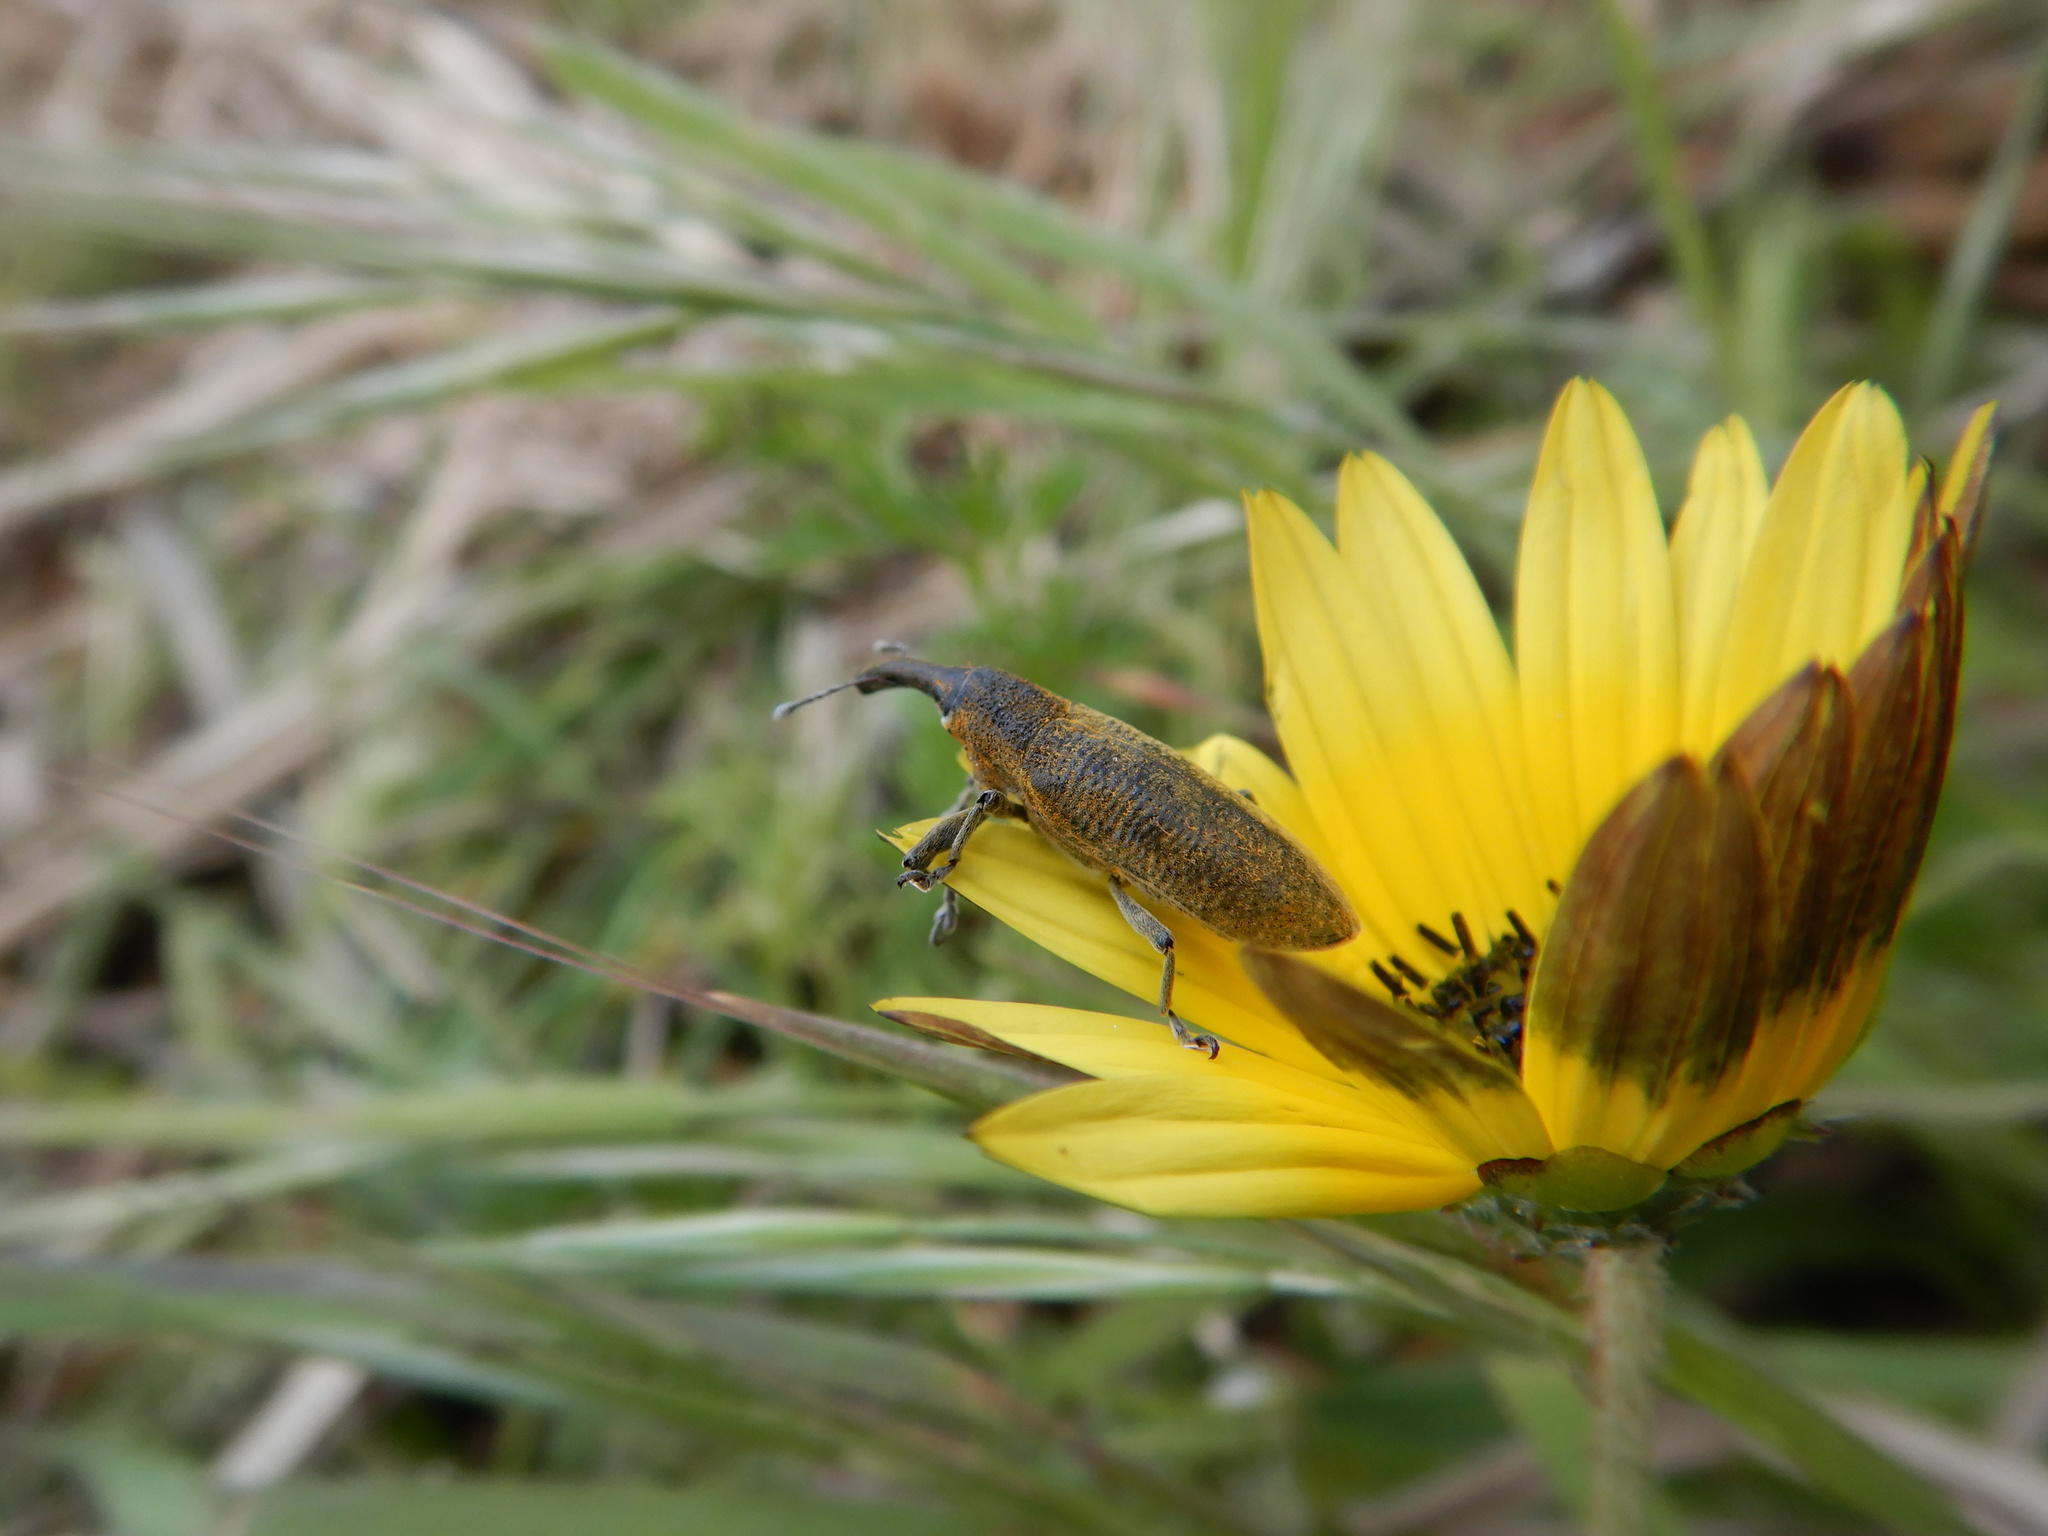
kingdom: Animalia
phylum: Arthropoda
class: Insecta
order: Coleoptera
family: Curculionidae
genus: Lixus
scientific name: Lixus pulverulentus
